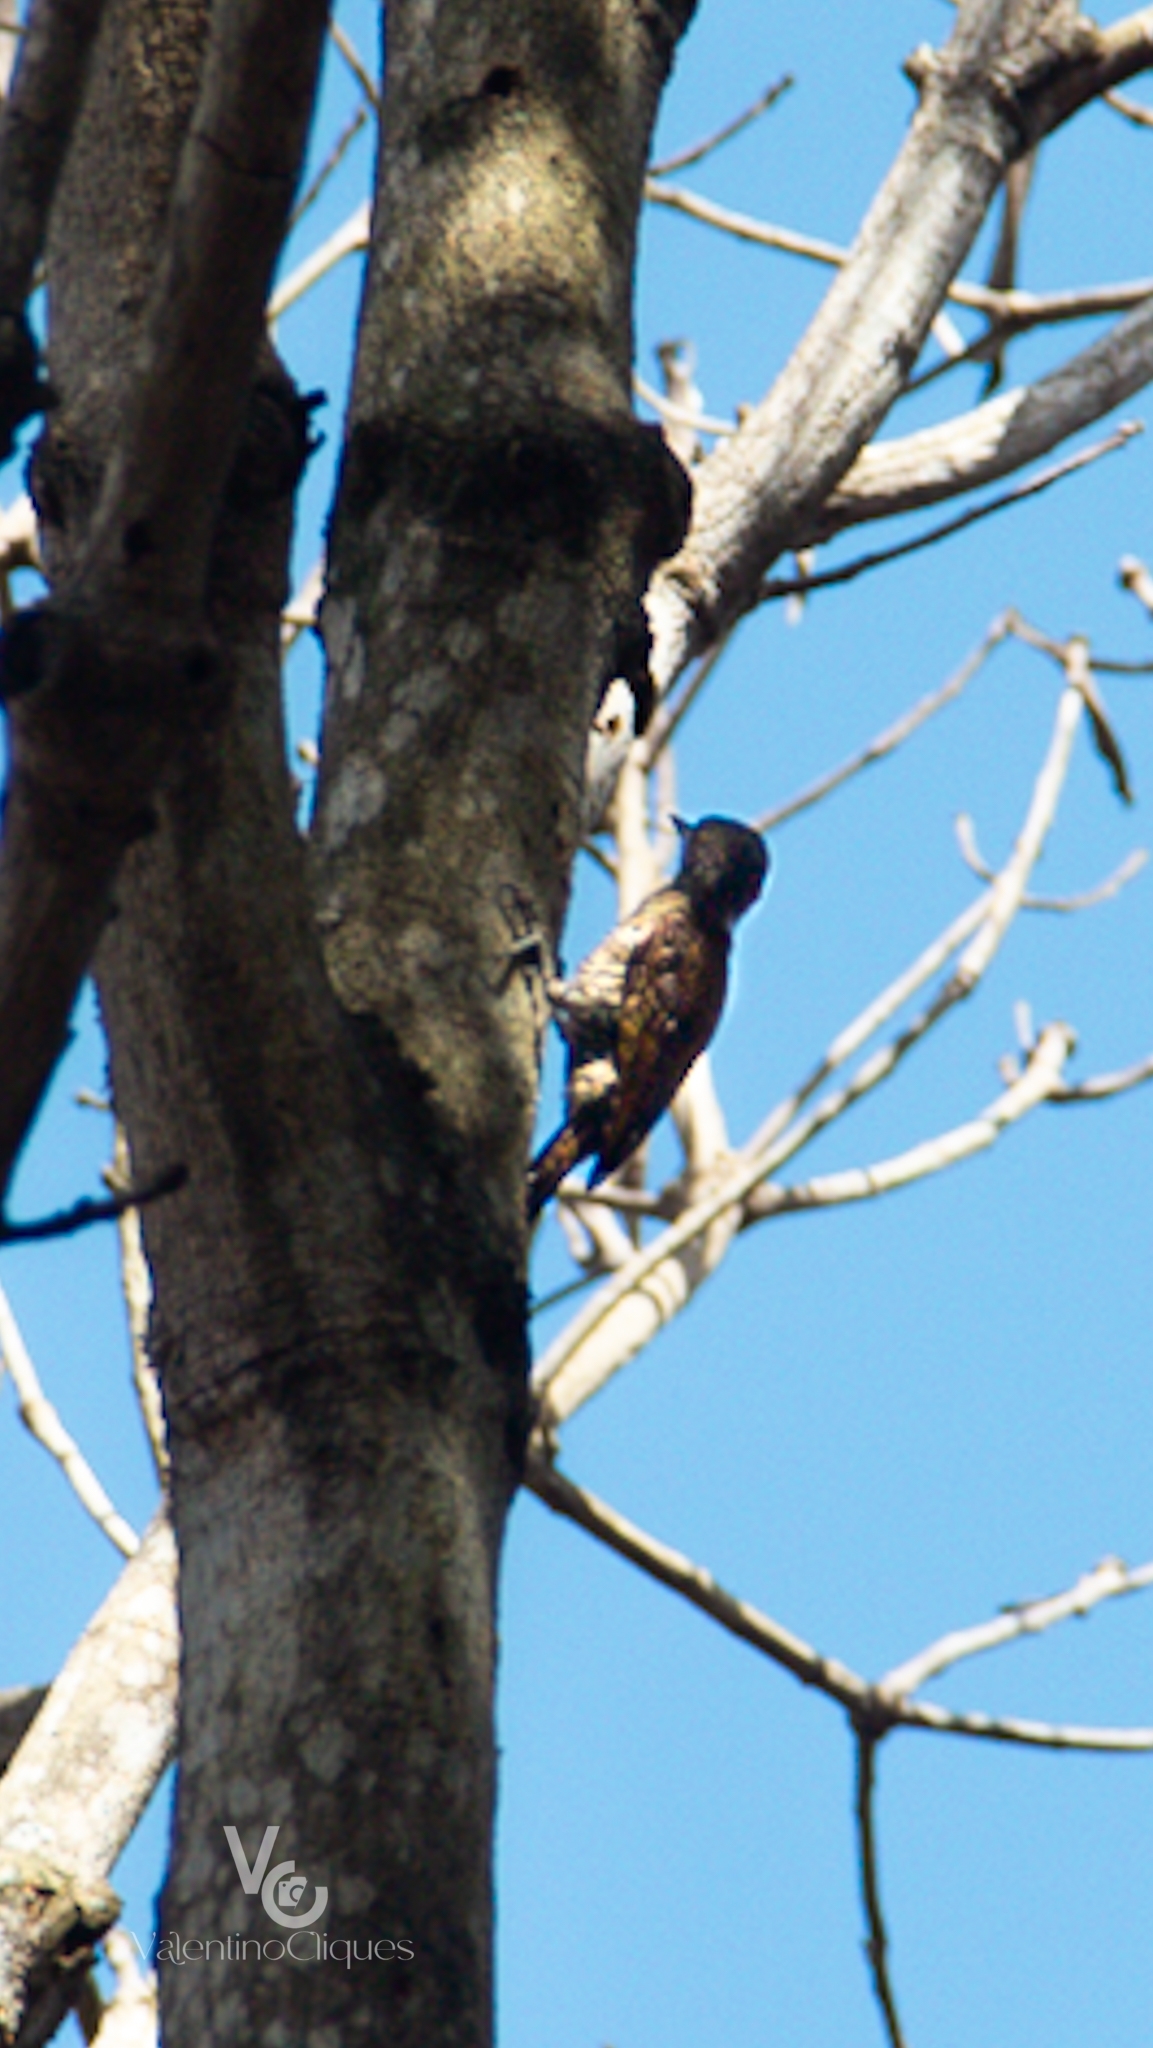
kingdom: Animalia
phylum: Chordata
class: Aves
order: Piciformes
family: Picidae
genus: Veniliornis
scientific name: Veniliornis passerinus
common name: Little woodpecker
